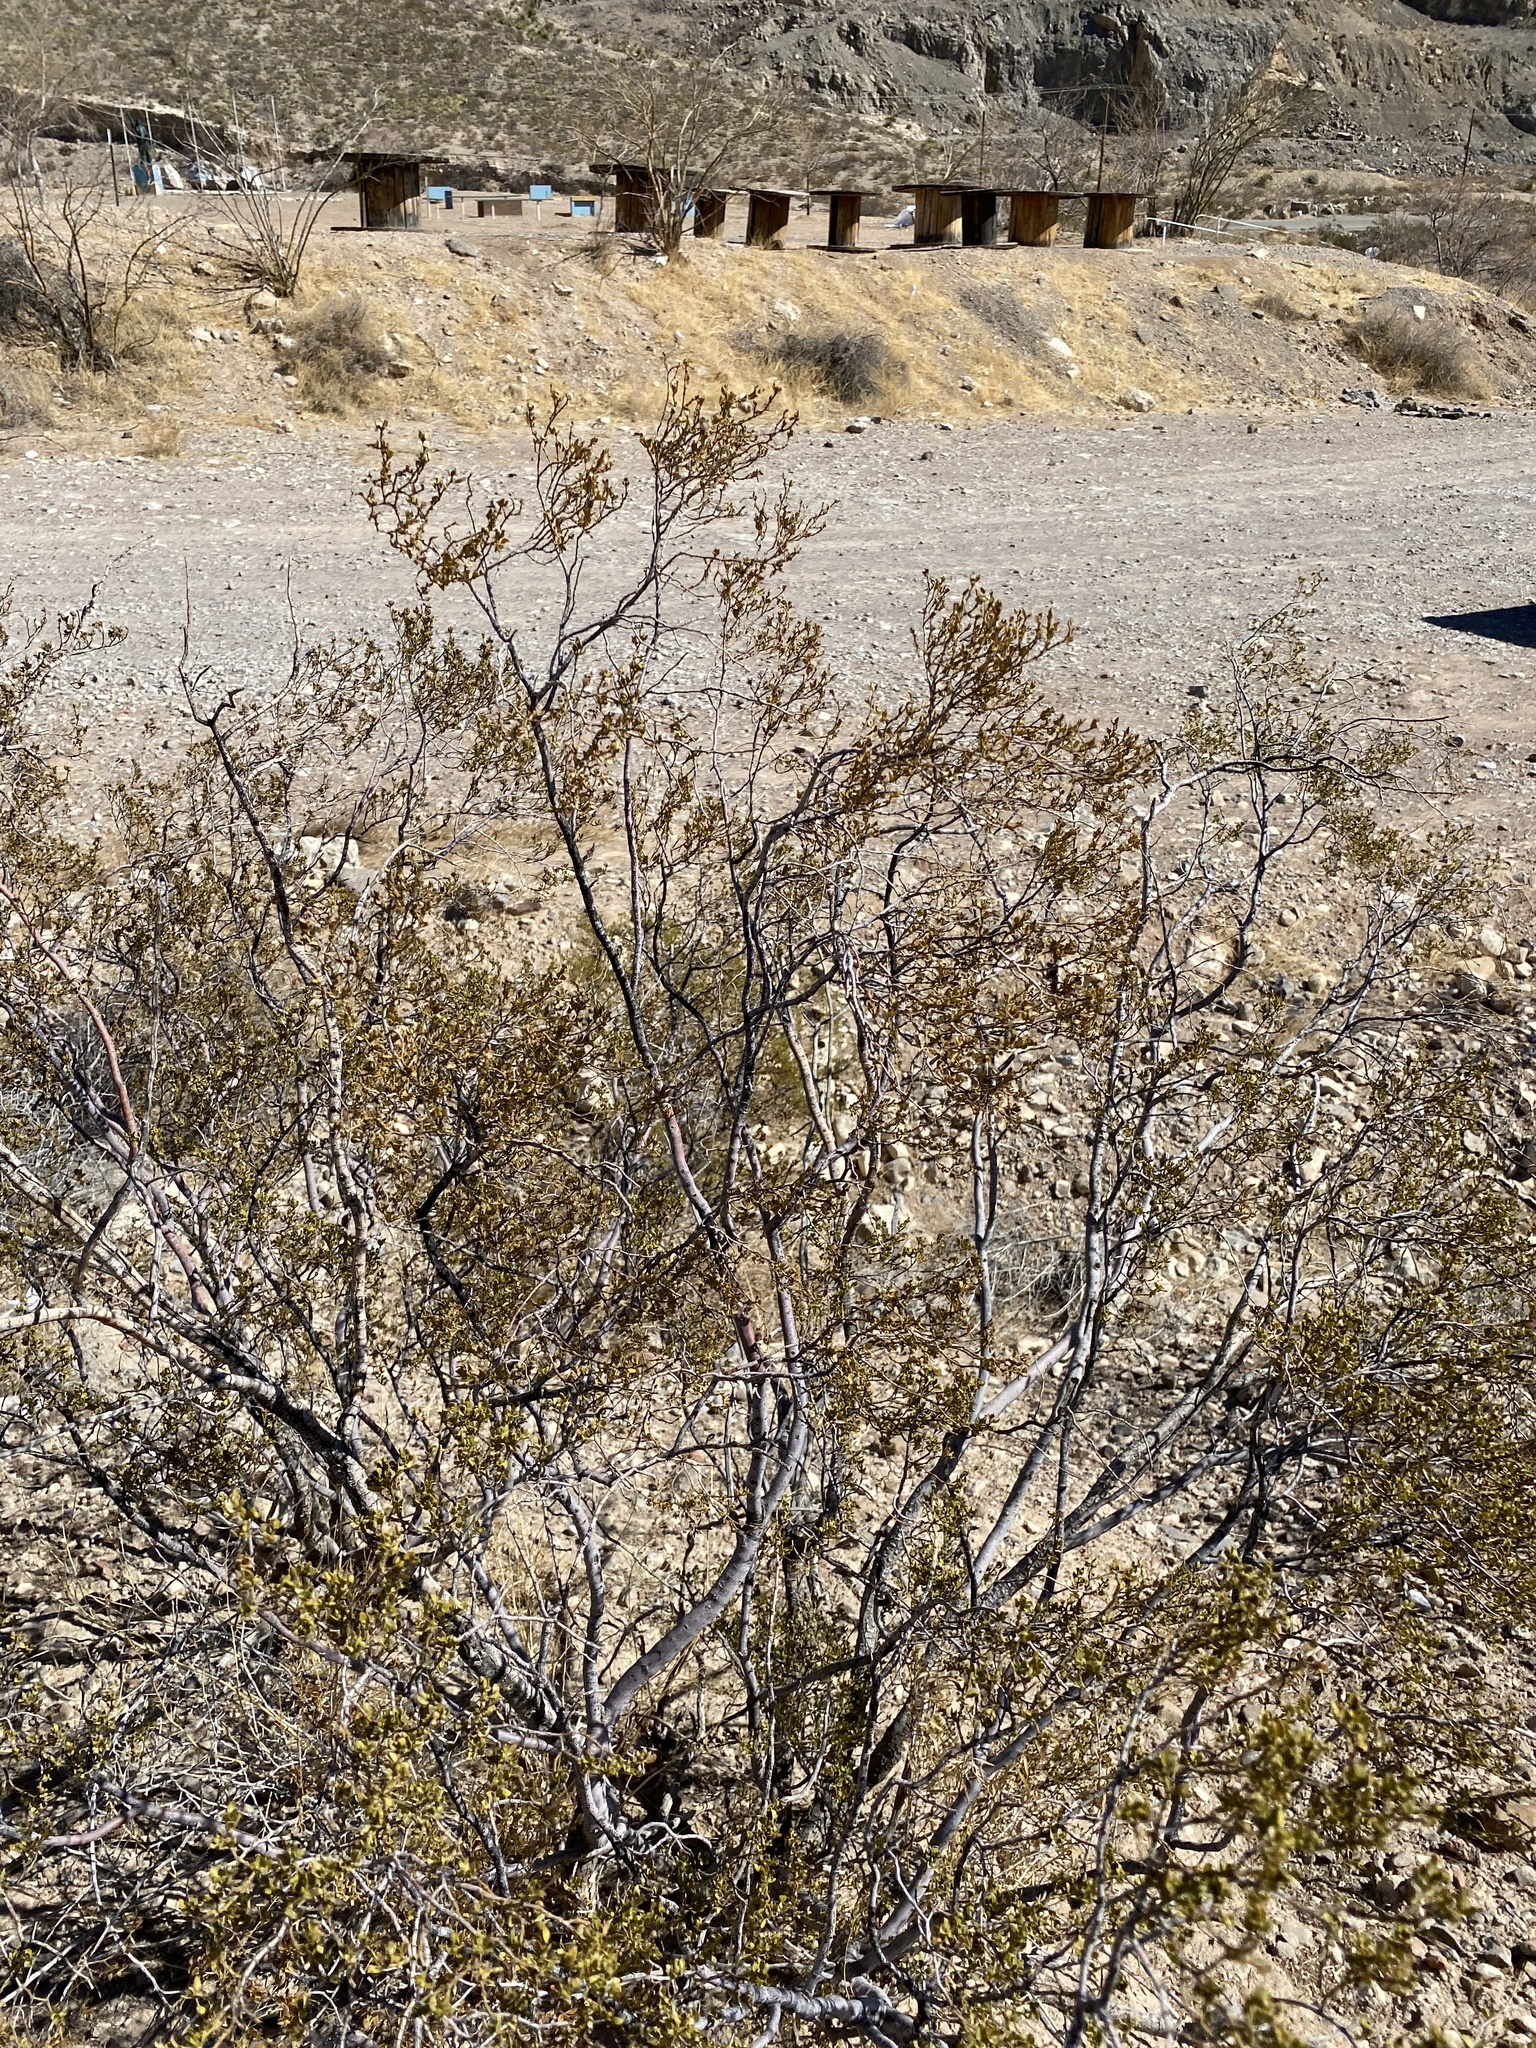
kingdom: Plantae
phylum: Tracheophyta
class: Magnoliopsida
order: Zygophyllales
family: Zygophyllaceae
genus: Larrea
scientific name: Larrea tridentata
